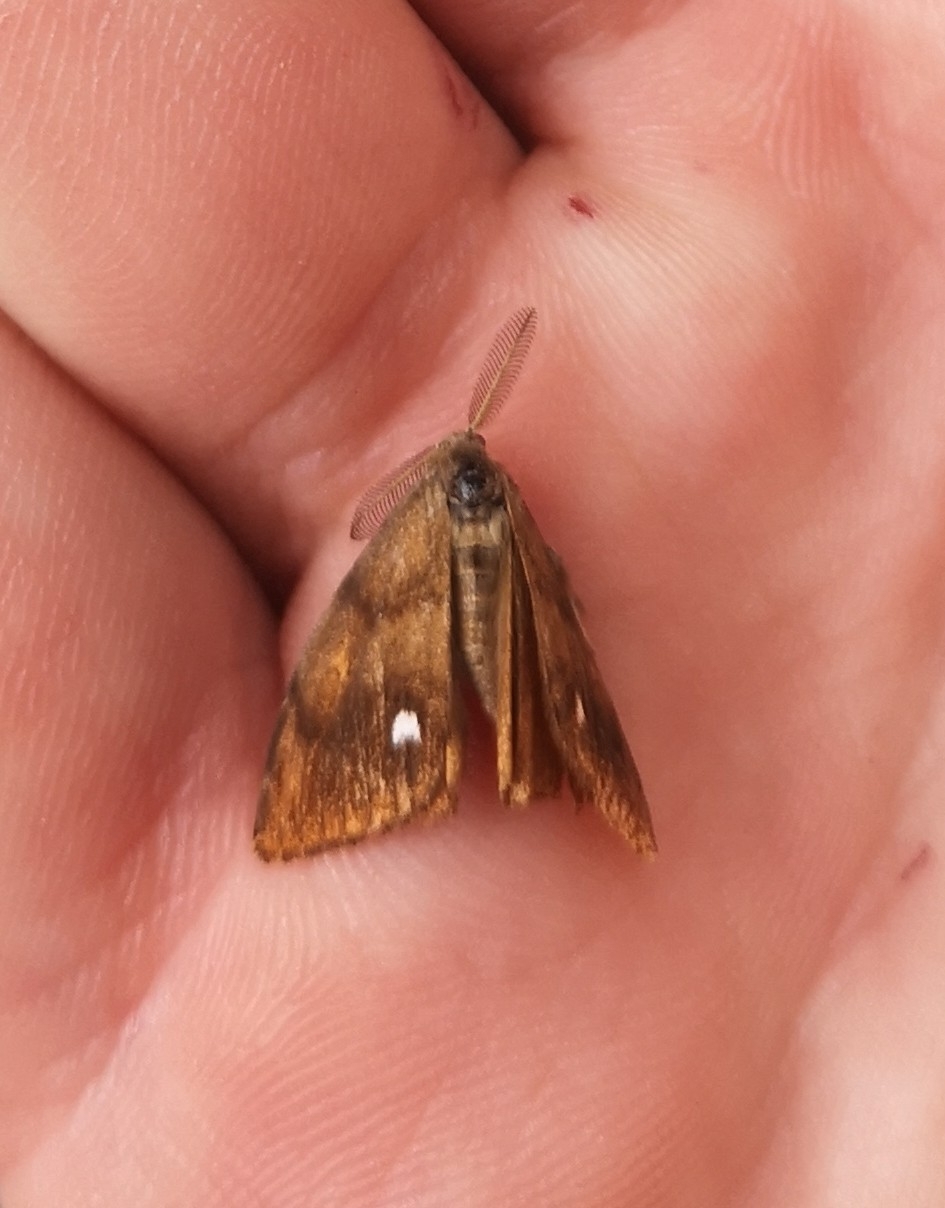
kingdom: Animalia
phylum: Arthropoda
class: Insecta
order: Lepidoptera
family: Erebidae
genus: Orgyia
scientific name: Orgyia antiqua
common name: Vapourer
